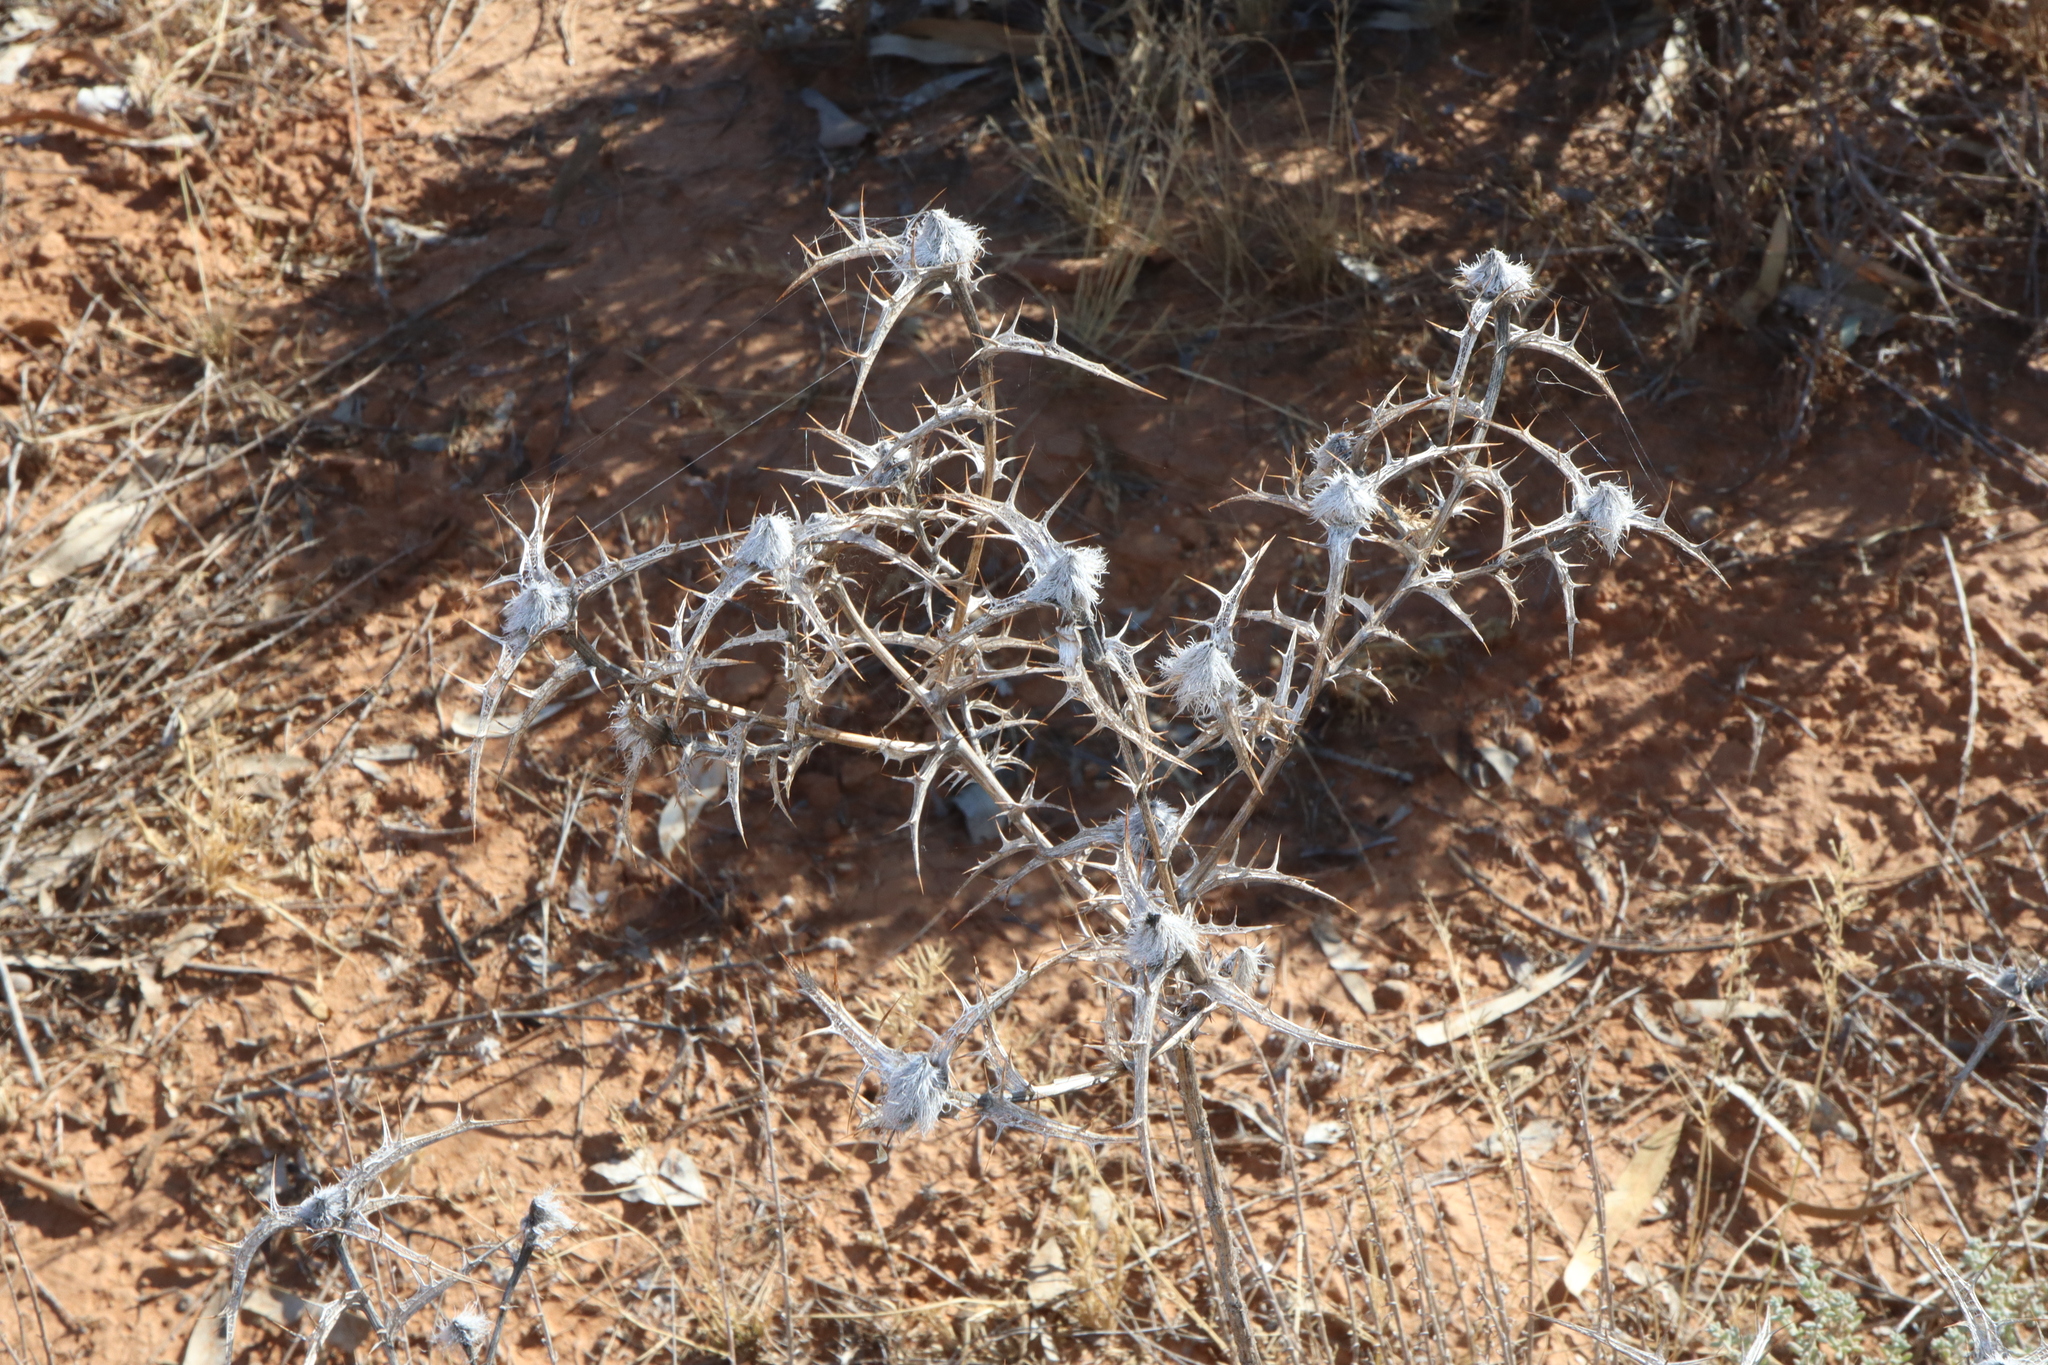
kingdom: Plantae
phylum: Tracheophyta
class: Magnoliopsida
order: Asterales
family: Asteraceae
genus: Carthamus
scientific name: Carthamus lanatus
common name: Downy safflower
